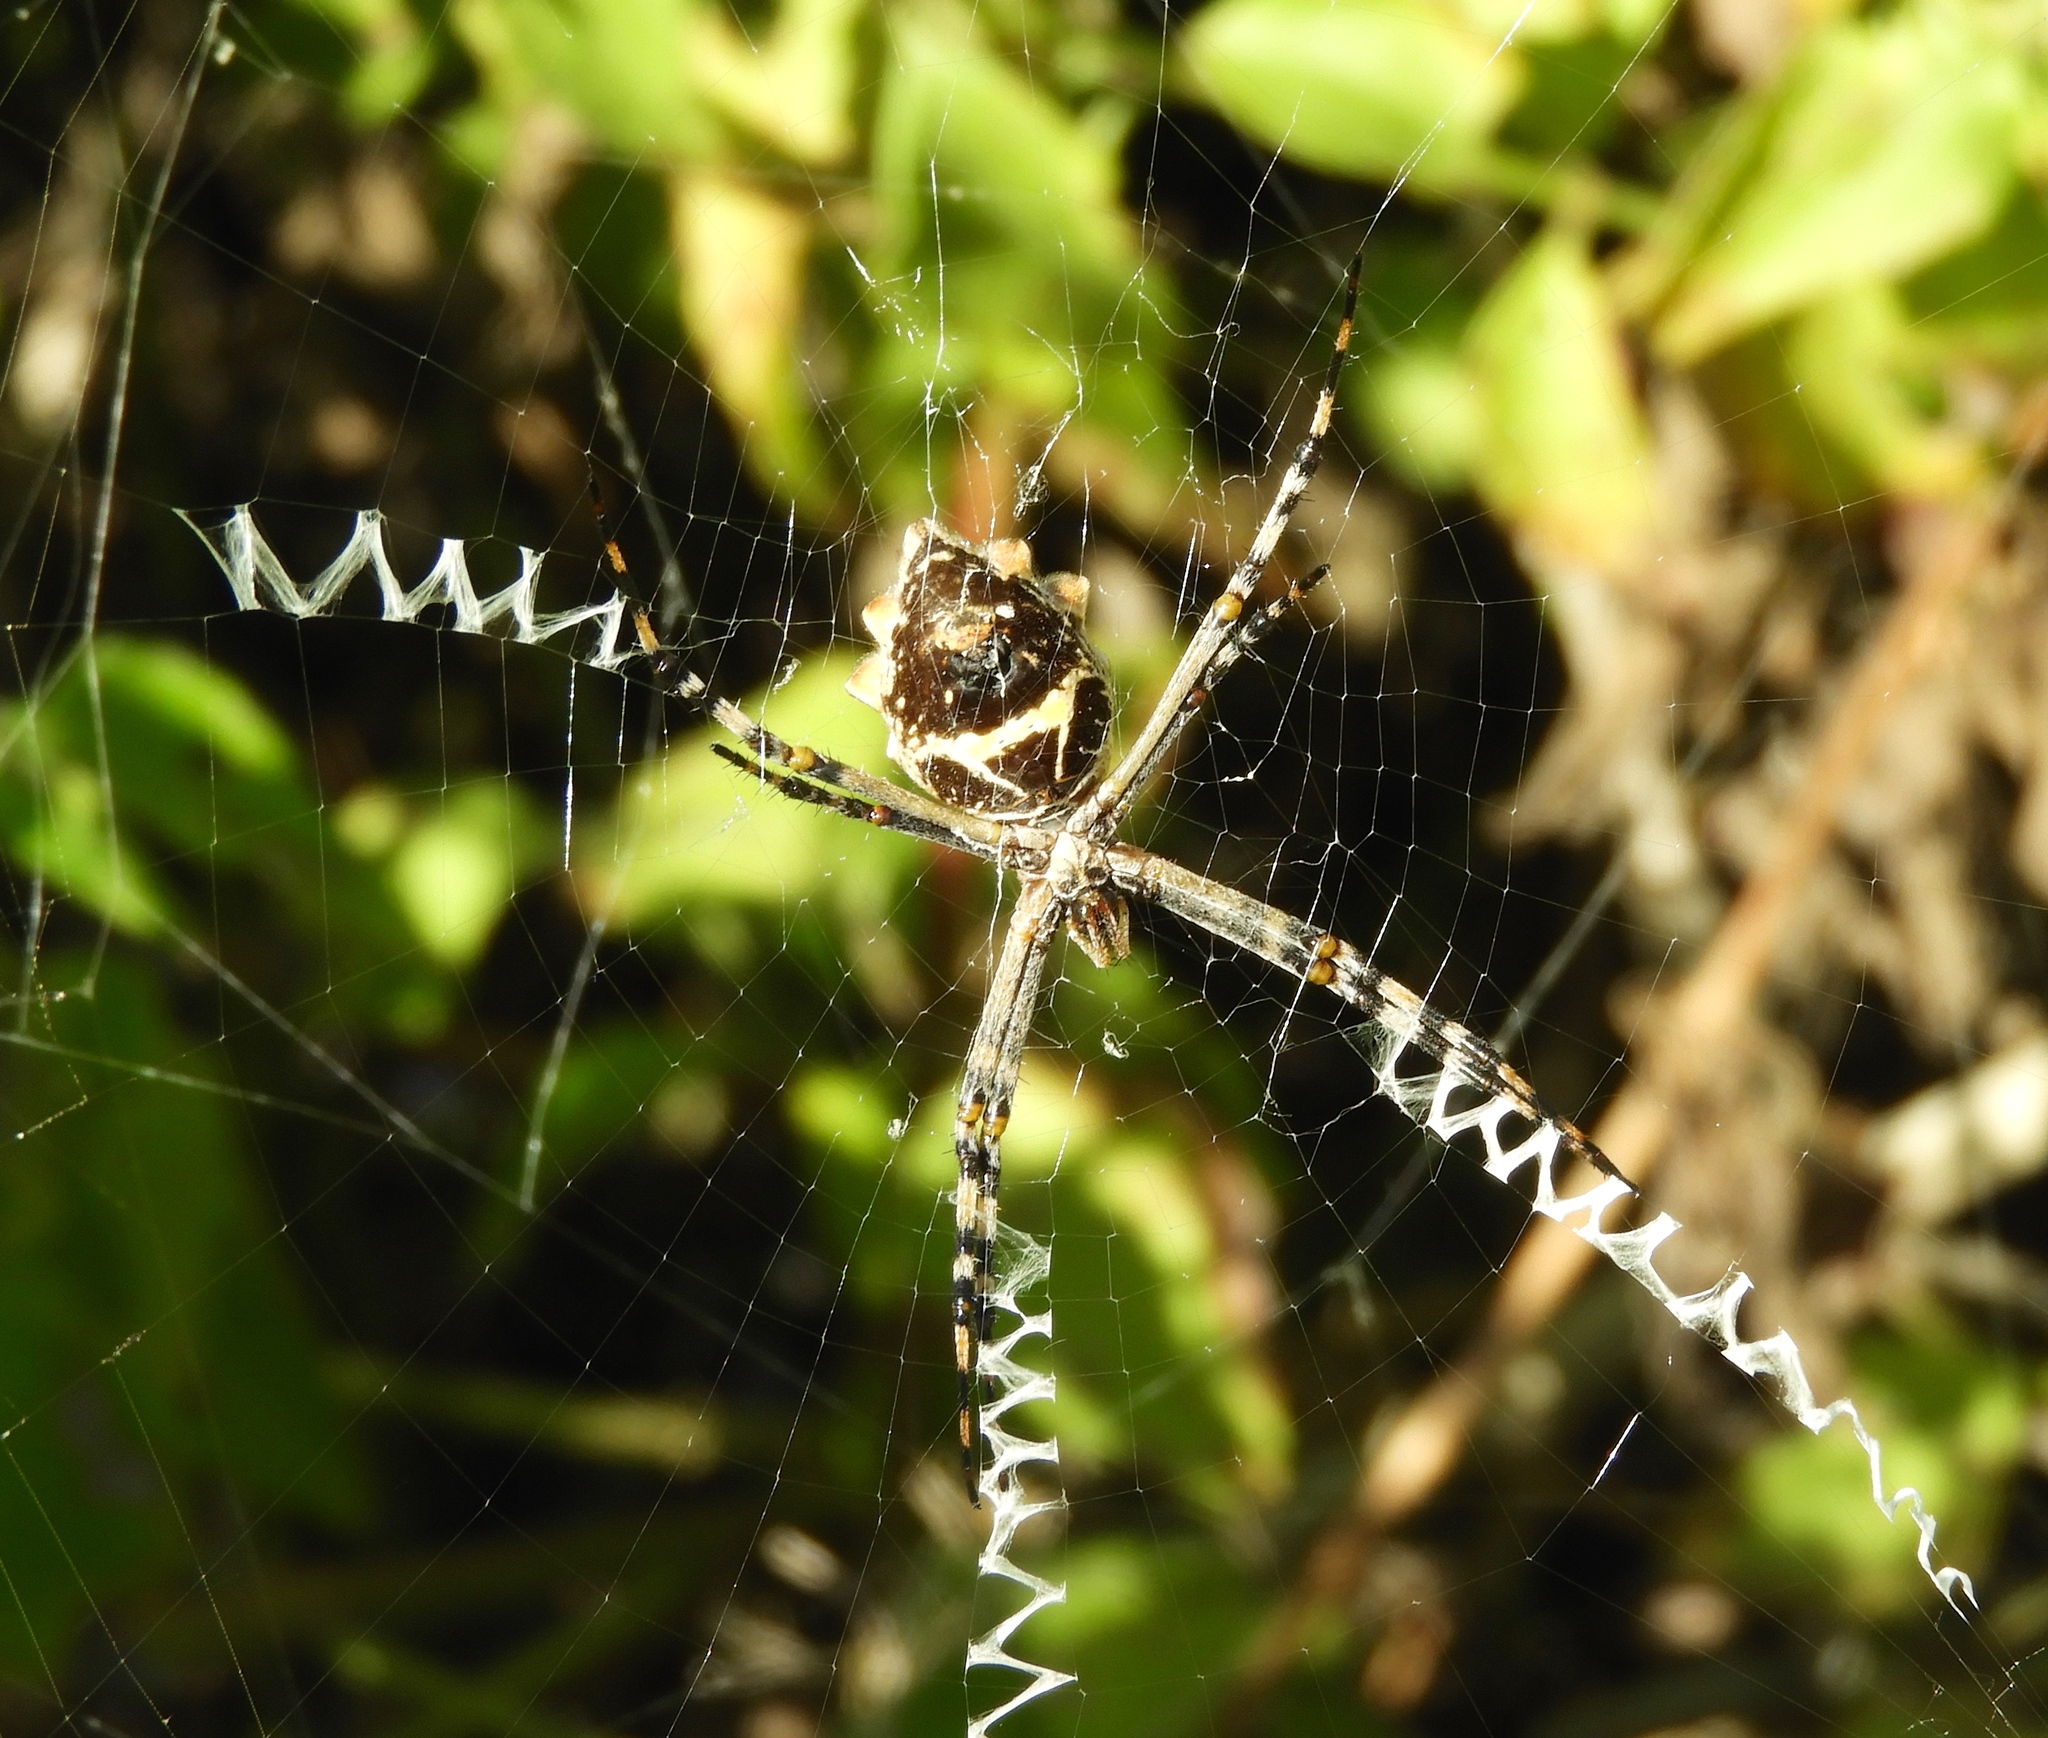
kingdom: Animalia
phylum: Arthropoda
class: Arachnida
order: Araneae
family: Araneidae
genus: Argiope
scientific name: Argiope argentata
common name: Orb weavers
